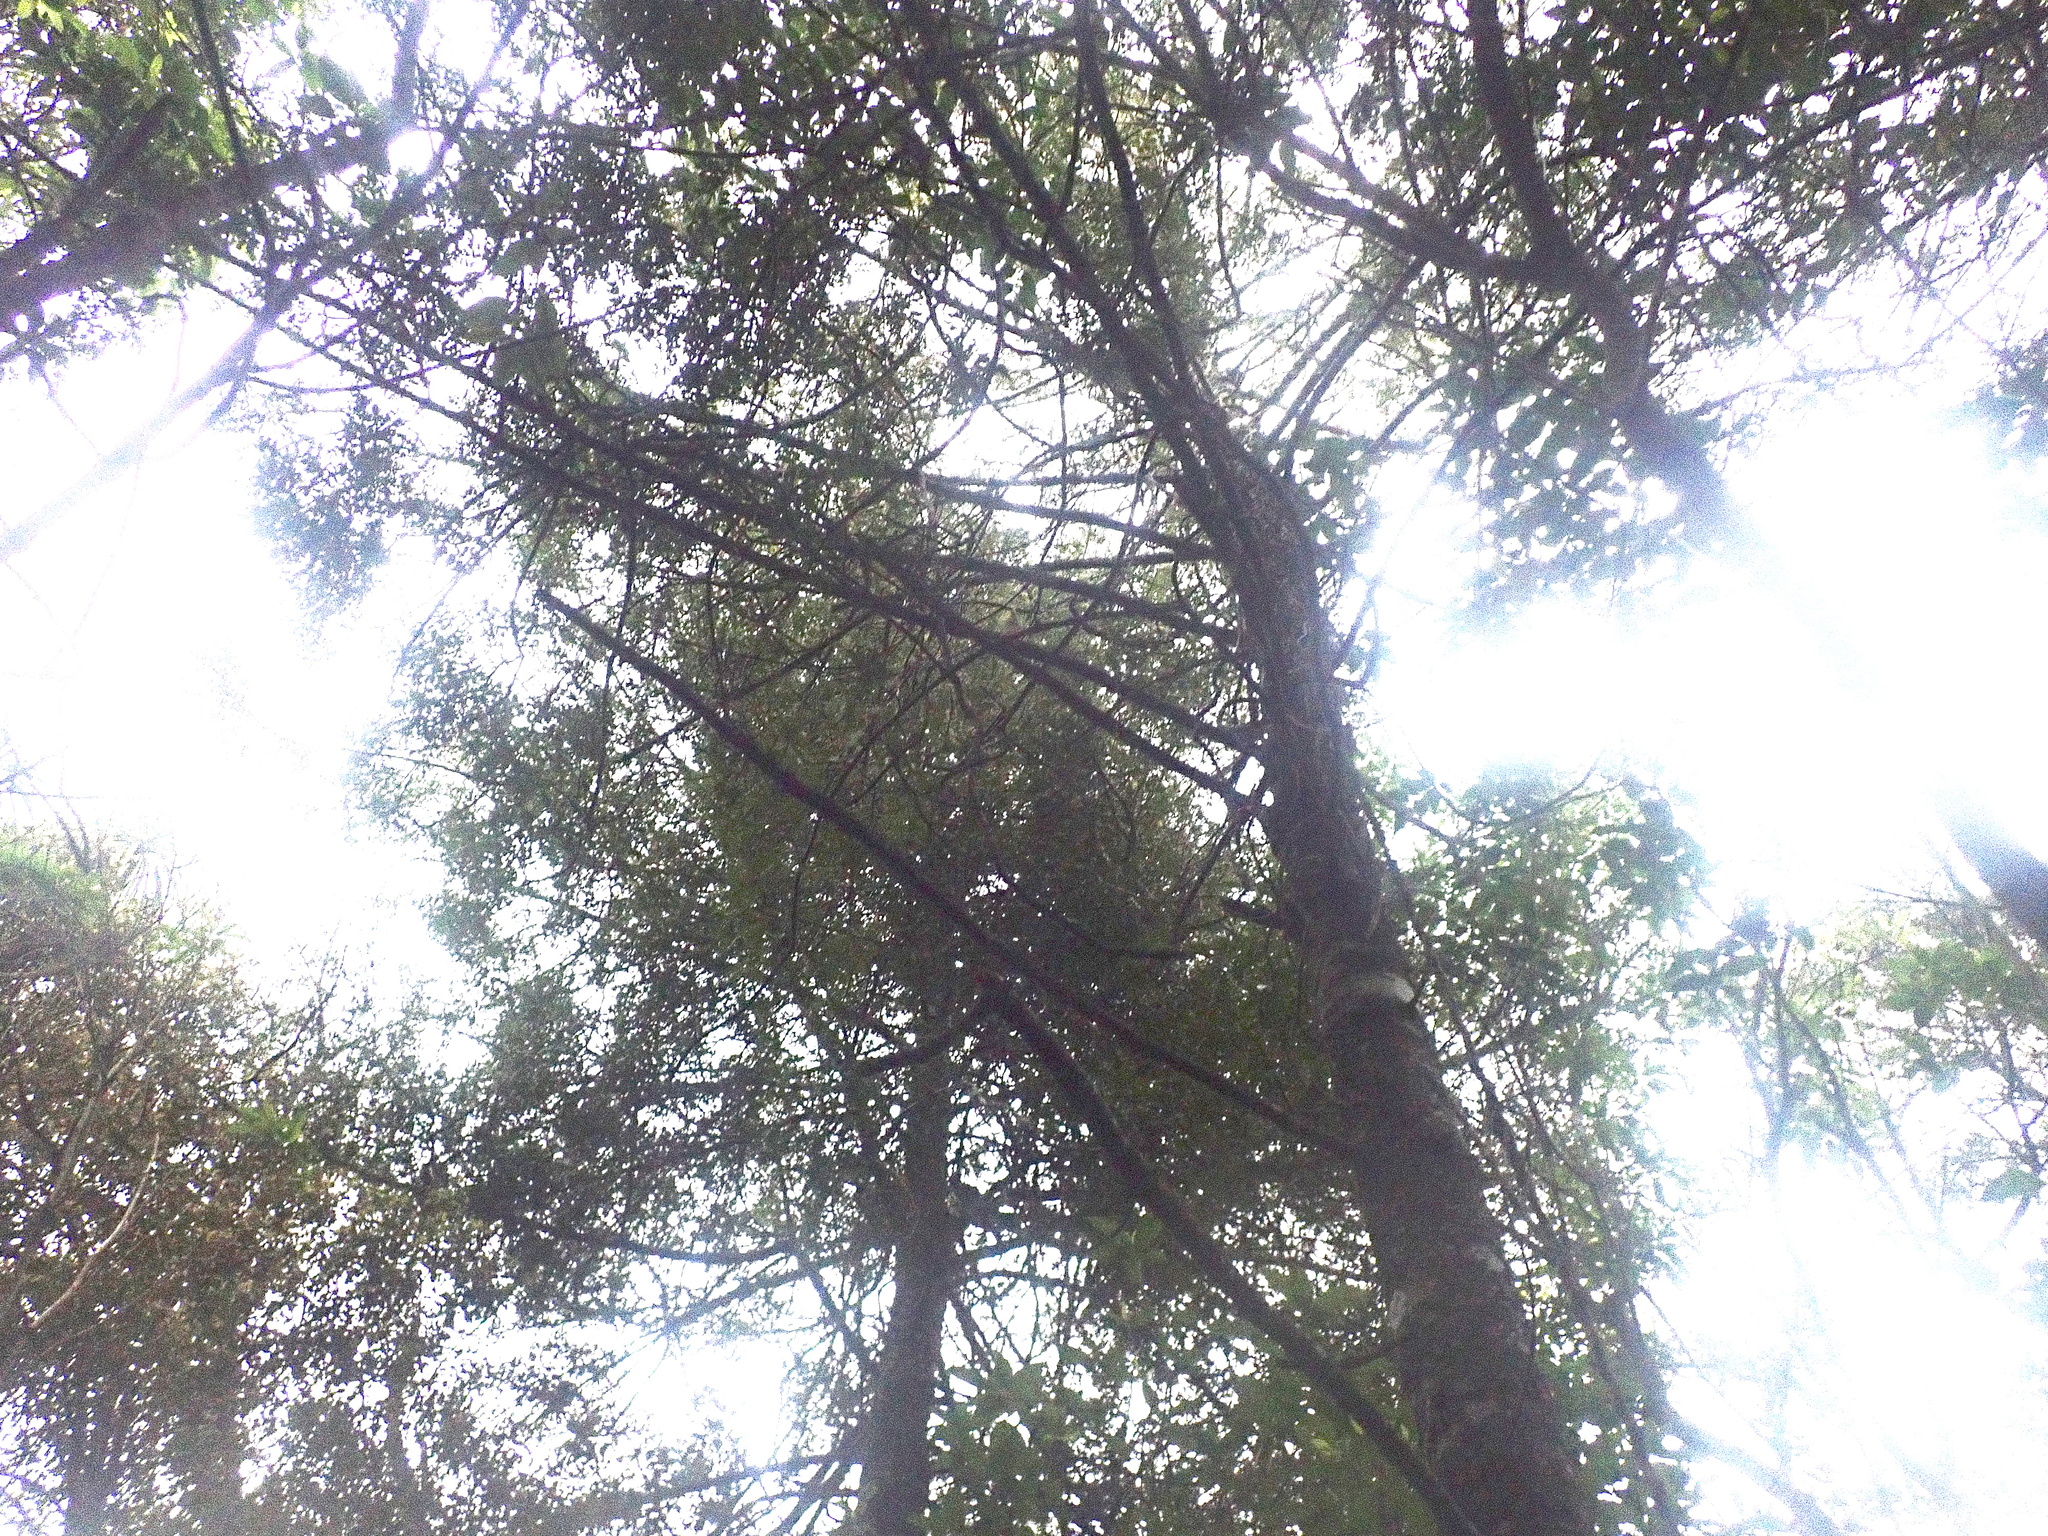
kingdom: Plantae
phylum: Tracheophyta
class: Pinopsida
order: Pinales
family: Phyllocladaceae
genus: Phyllocladus
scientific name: Phyllocladus trichomanoides
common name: Celery pine
